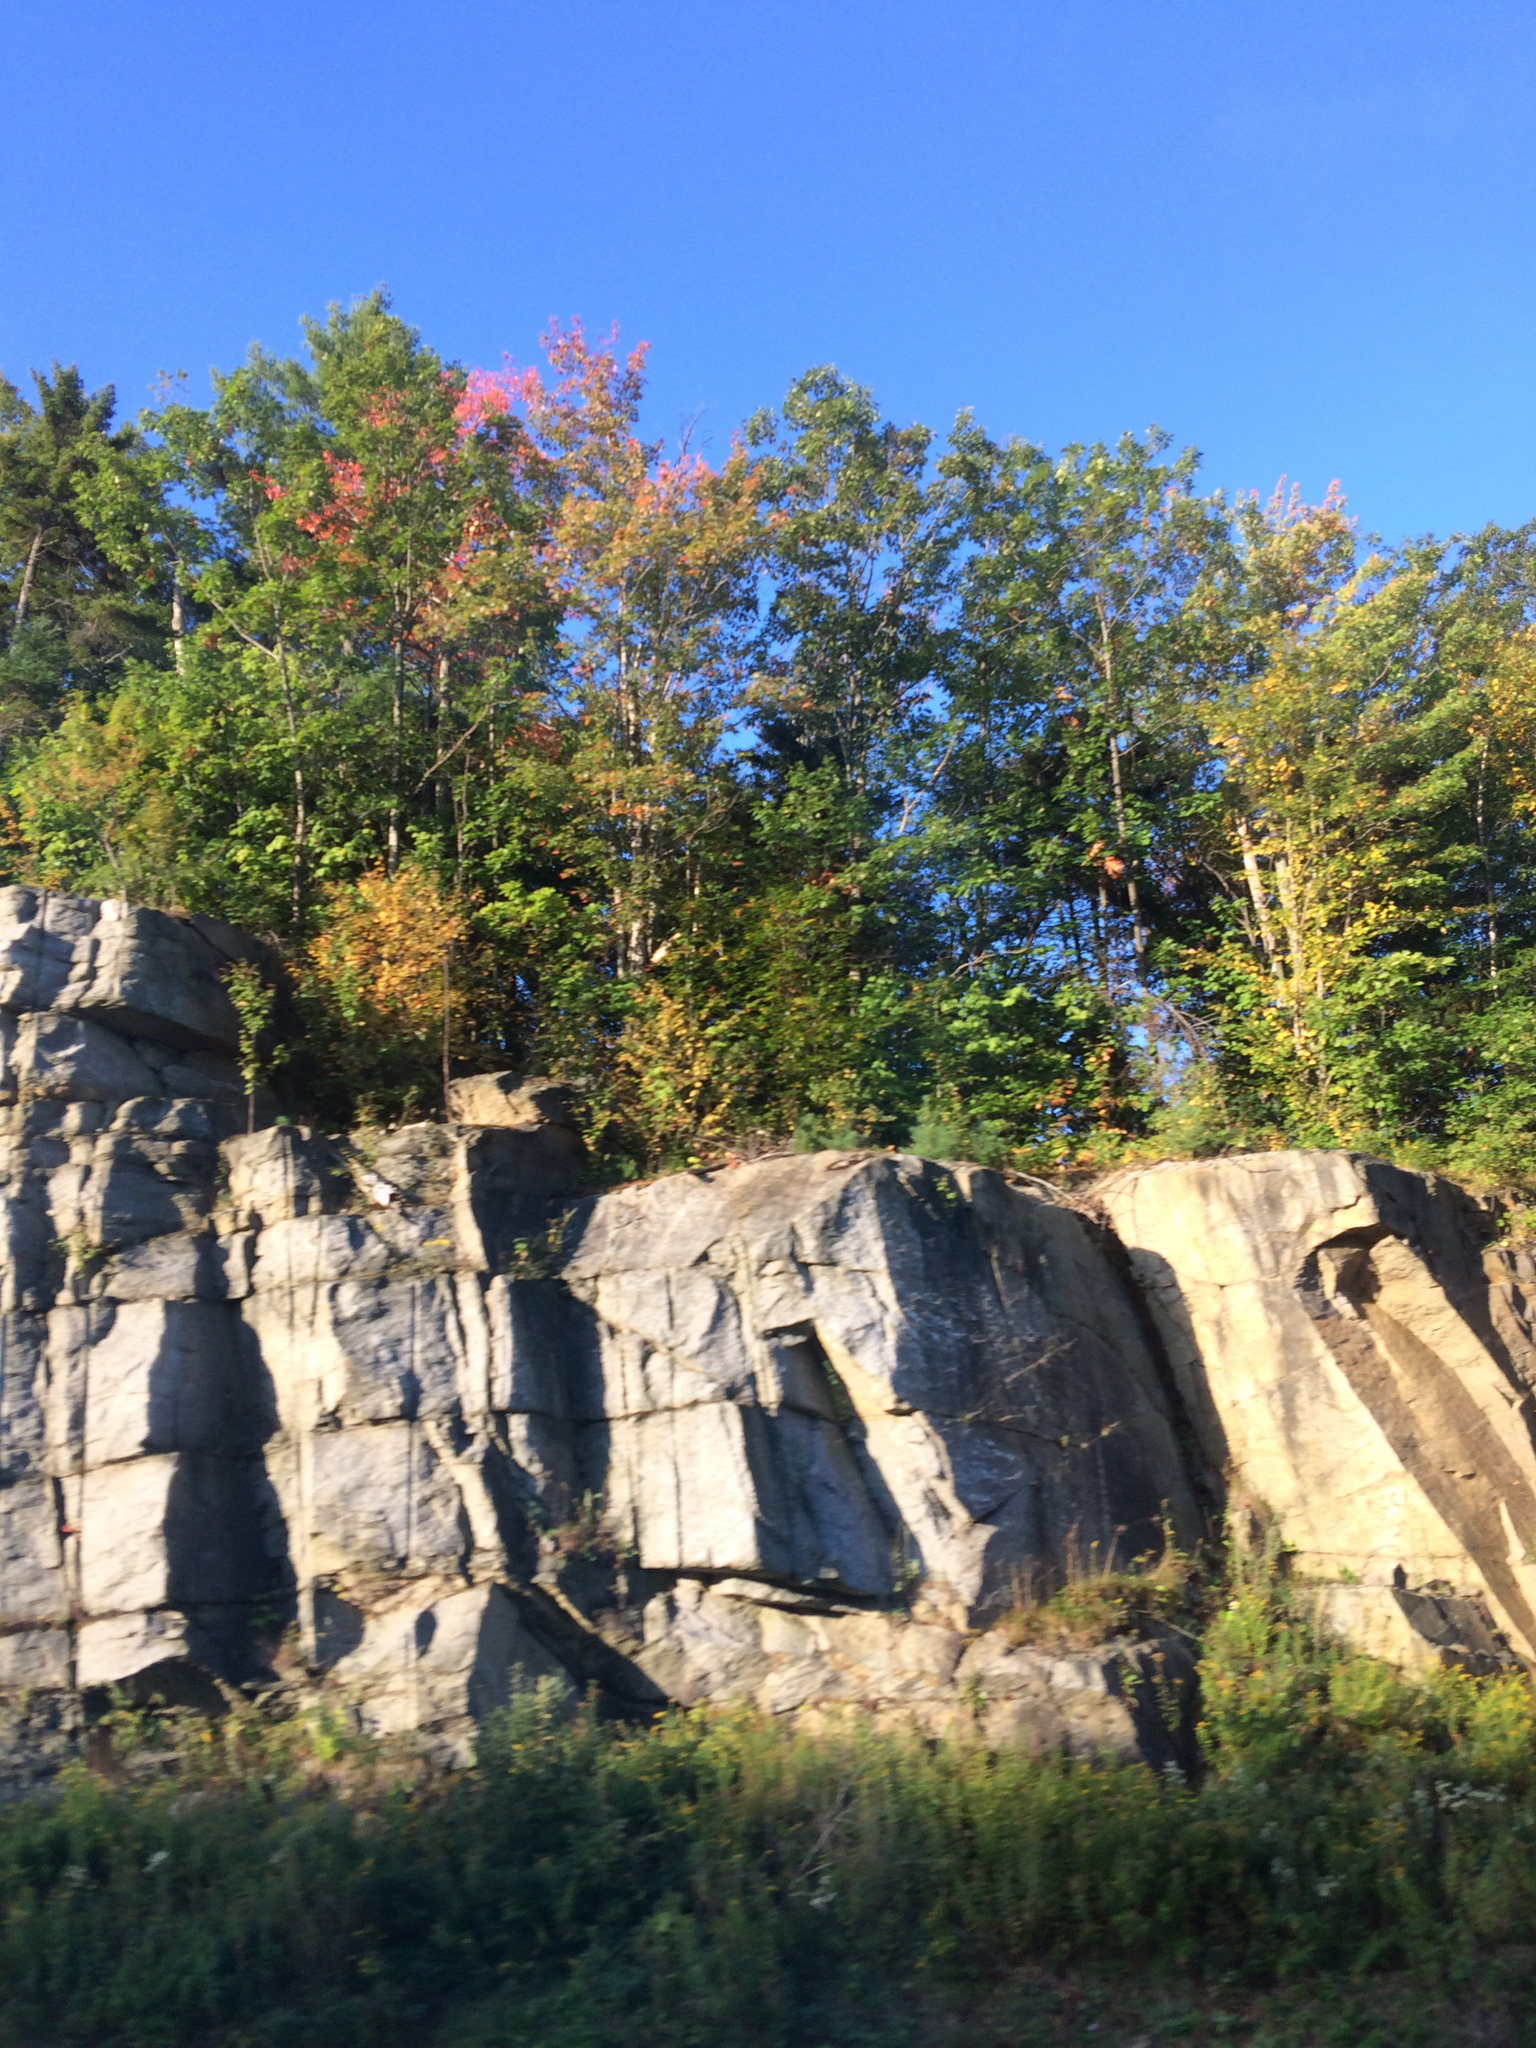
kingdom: Plantae
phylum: Tracheophyta
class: Magnoliopsida
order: Sapindales
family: Sapindaceae
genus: Acer
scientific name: Acer rubrum
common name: Red maple
